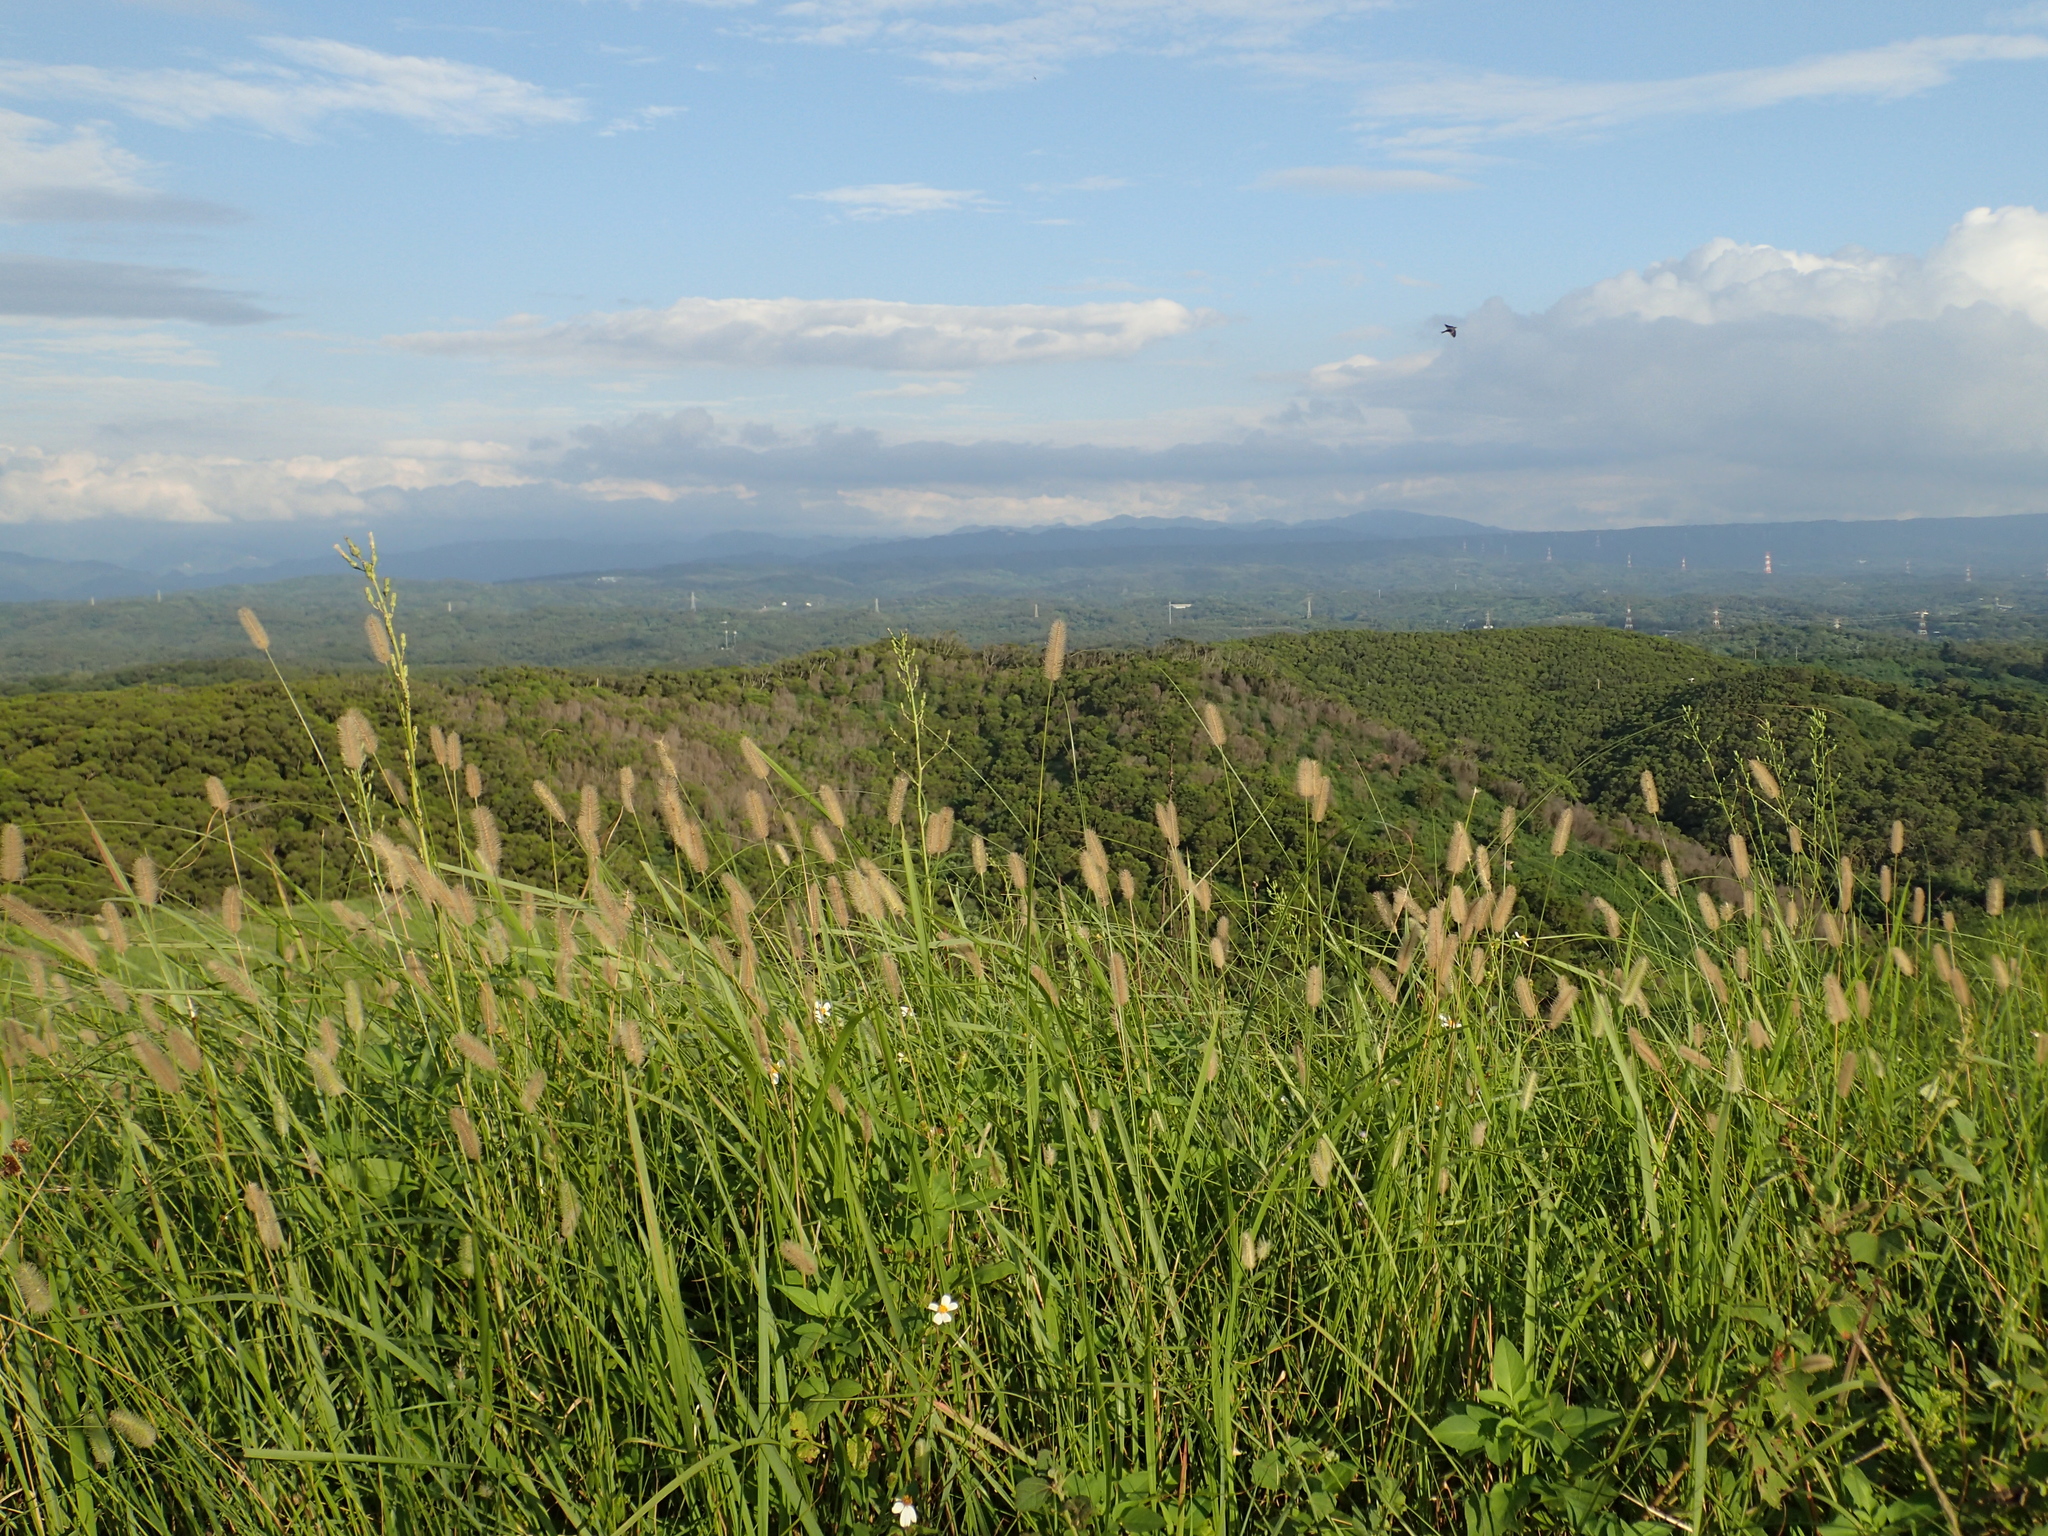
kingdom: Plantae
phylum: Tracheophyta
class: Liliopsida
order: Poales
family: Poaceae
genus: Setaria
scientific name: Setaria pumila
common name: Yellow bristle-grass
